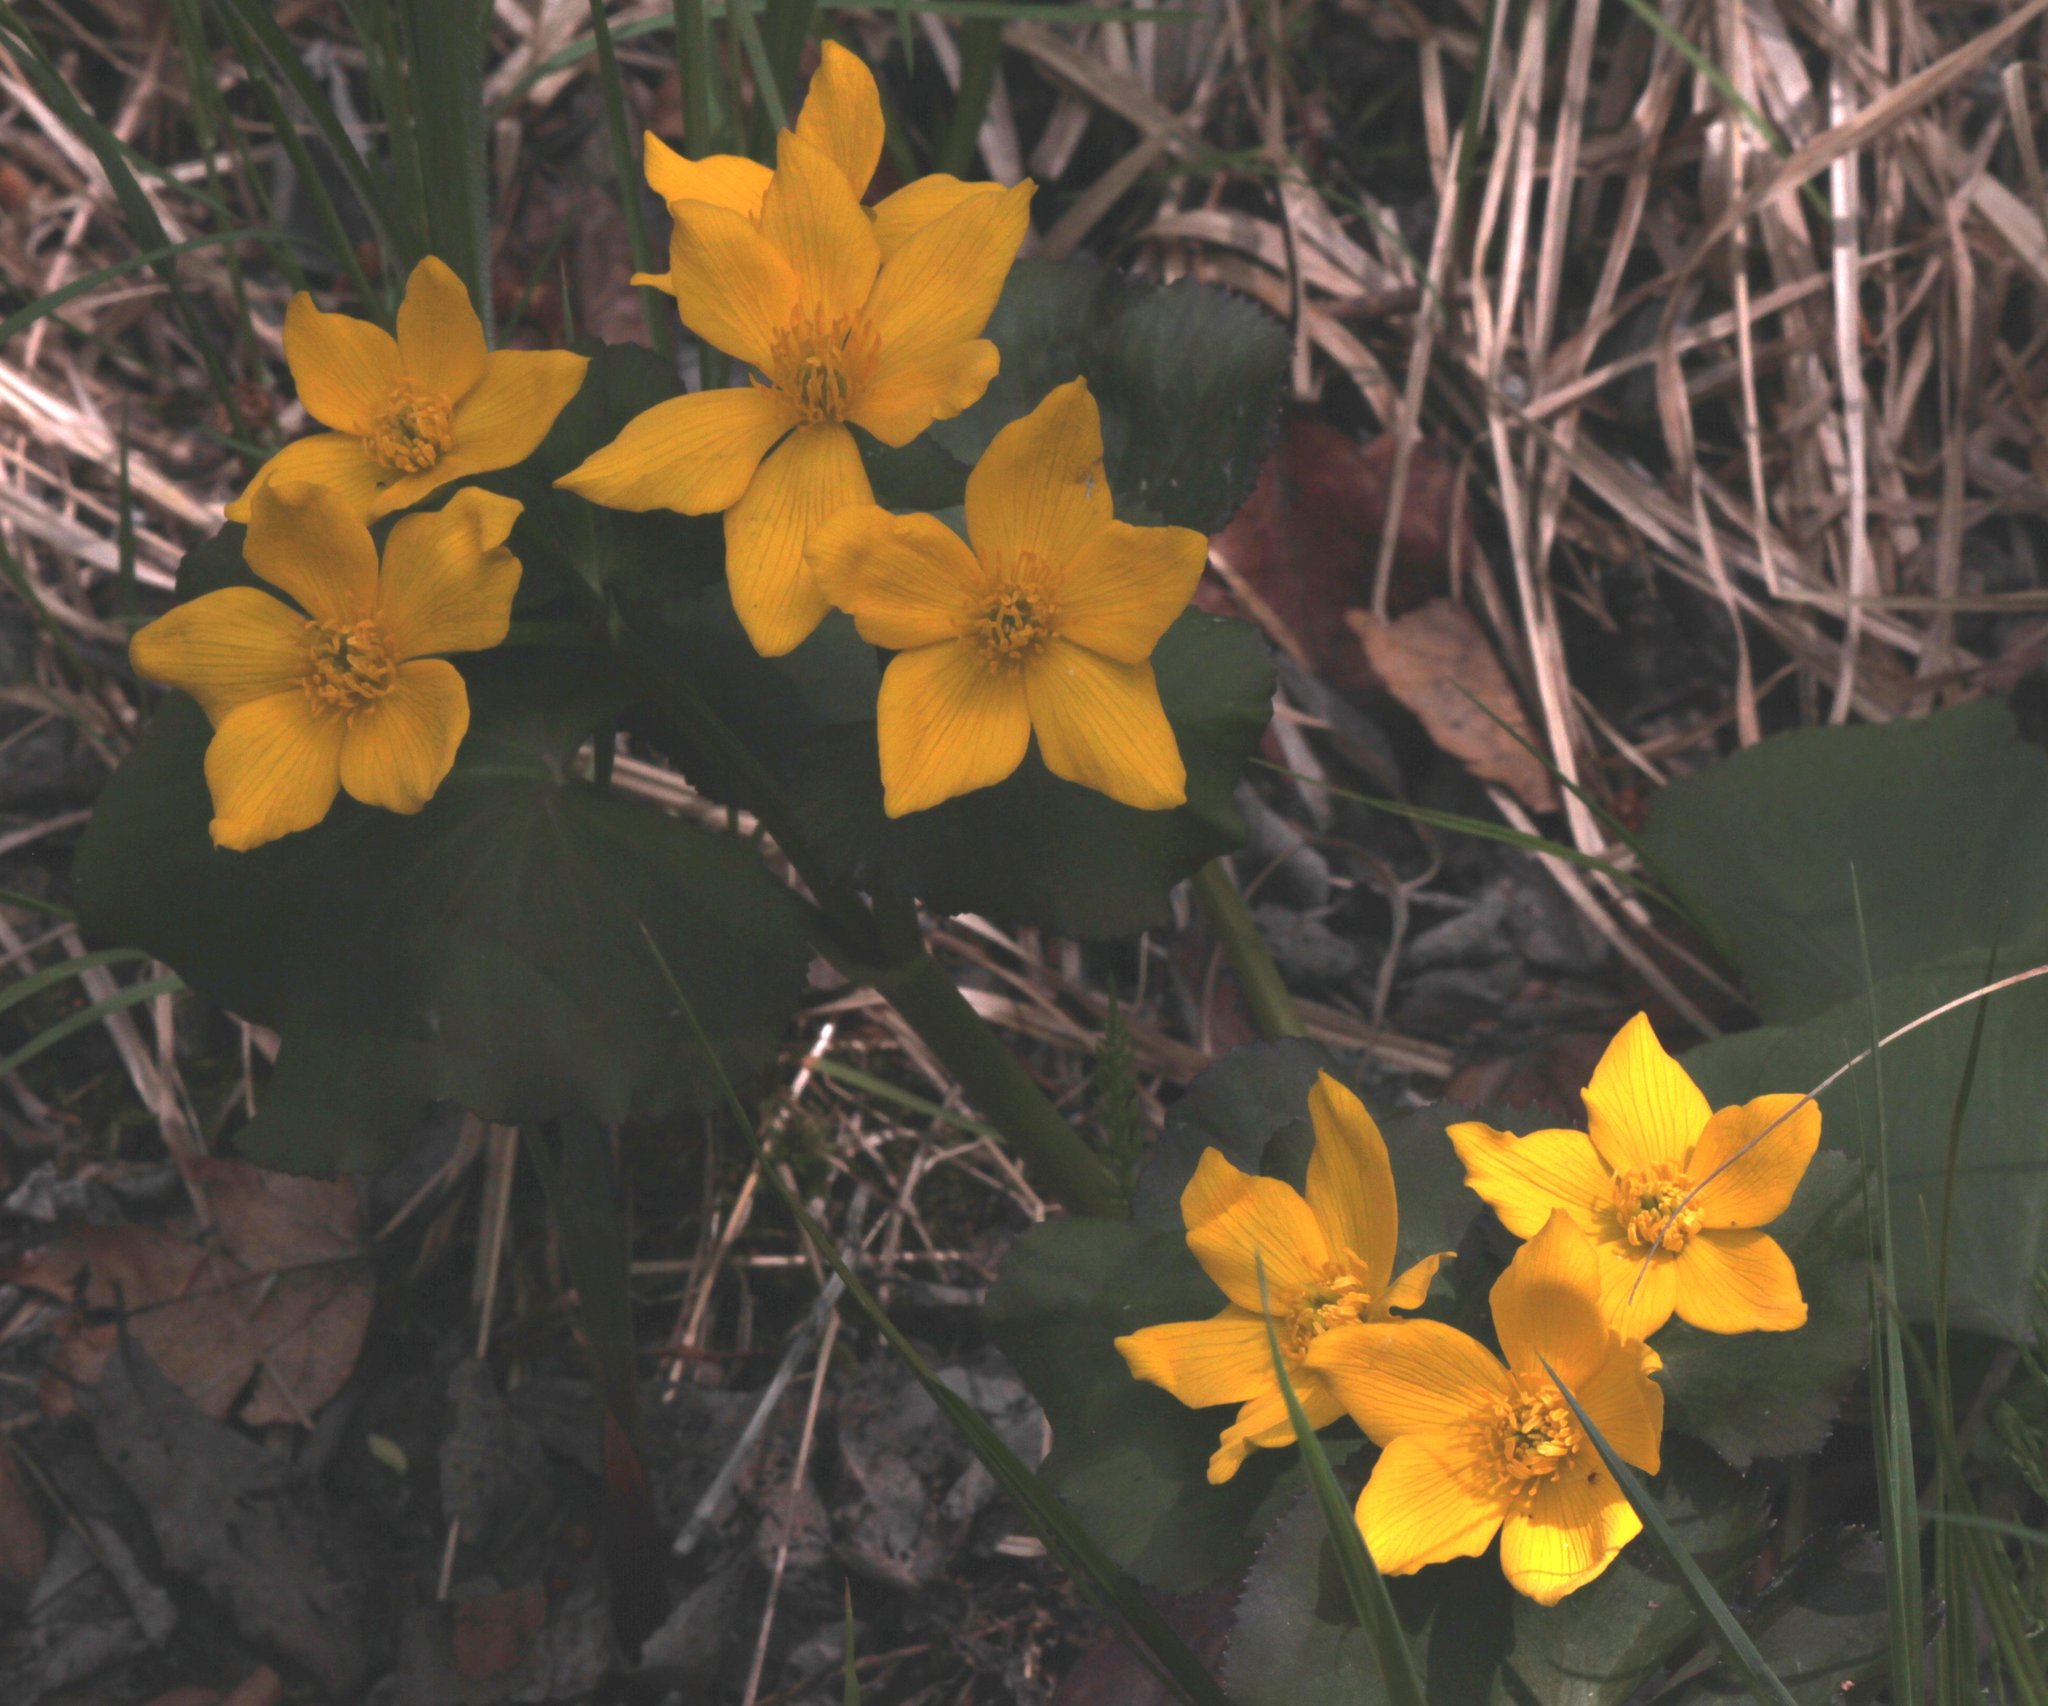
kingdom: Plantae
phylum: Tracheophyta
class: Magnoliopsida
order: Ranunculales
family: Ranunculaceae
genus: Caltha
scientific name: Caltha palustris
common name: Marsh marigold
